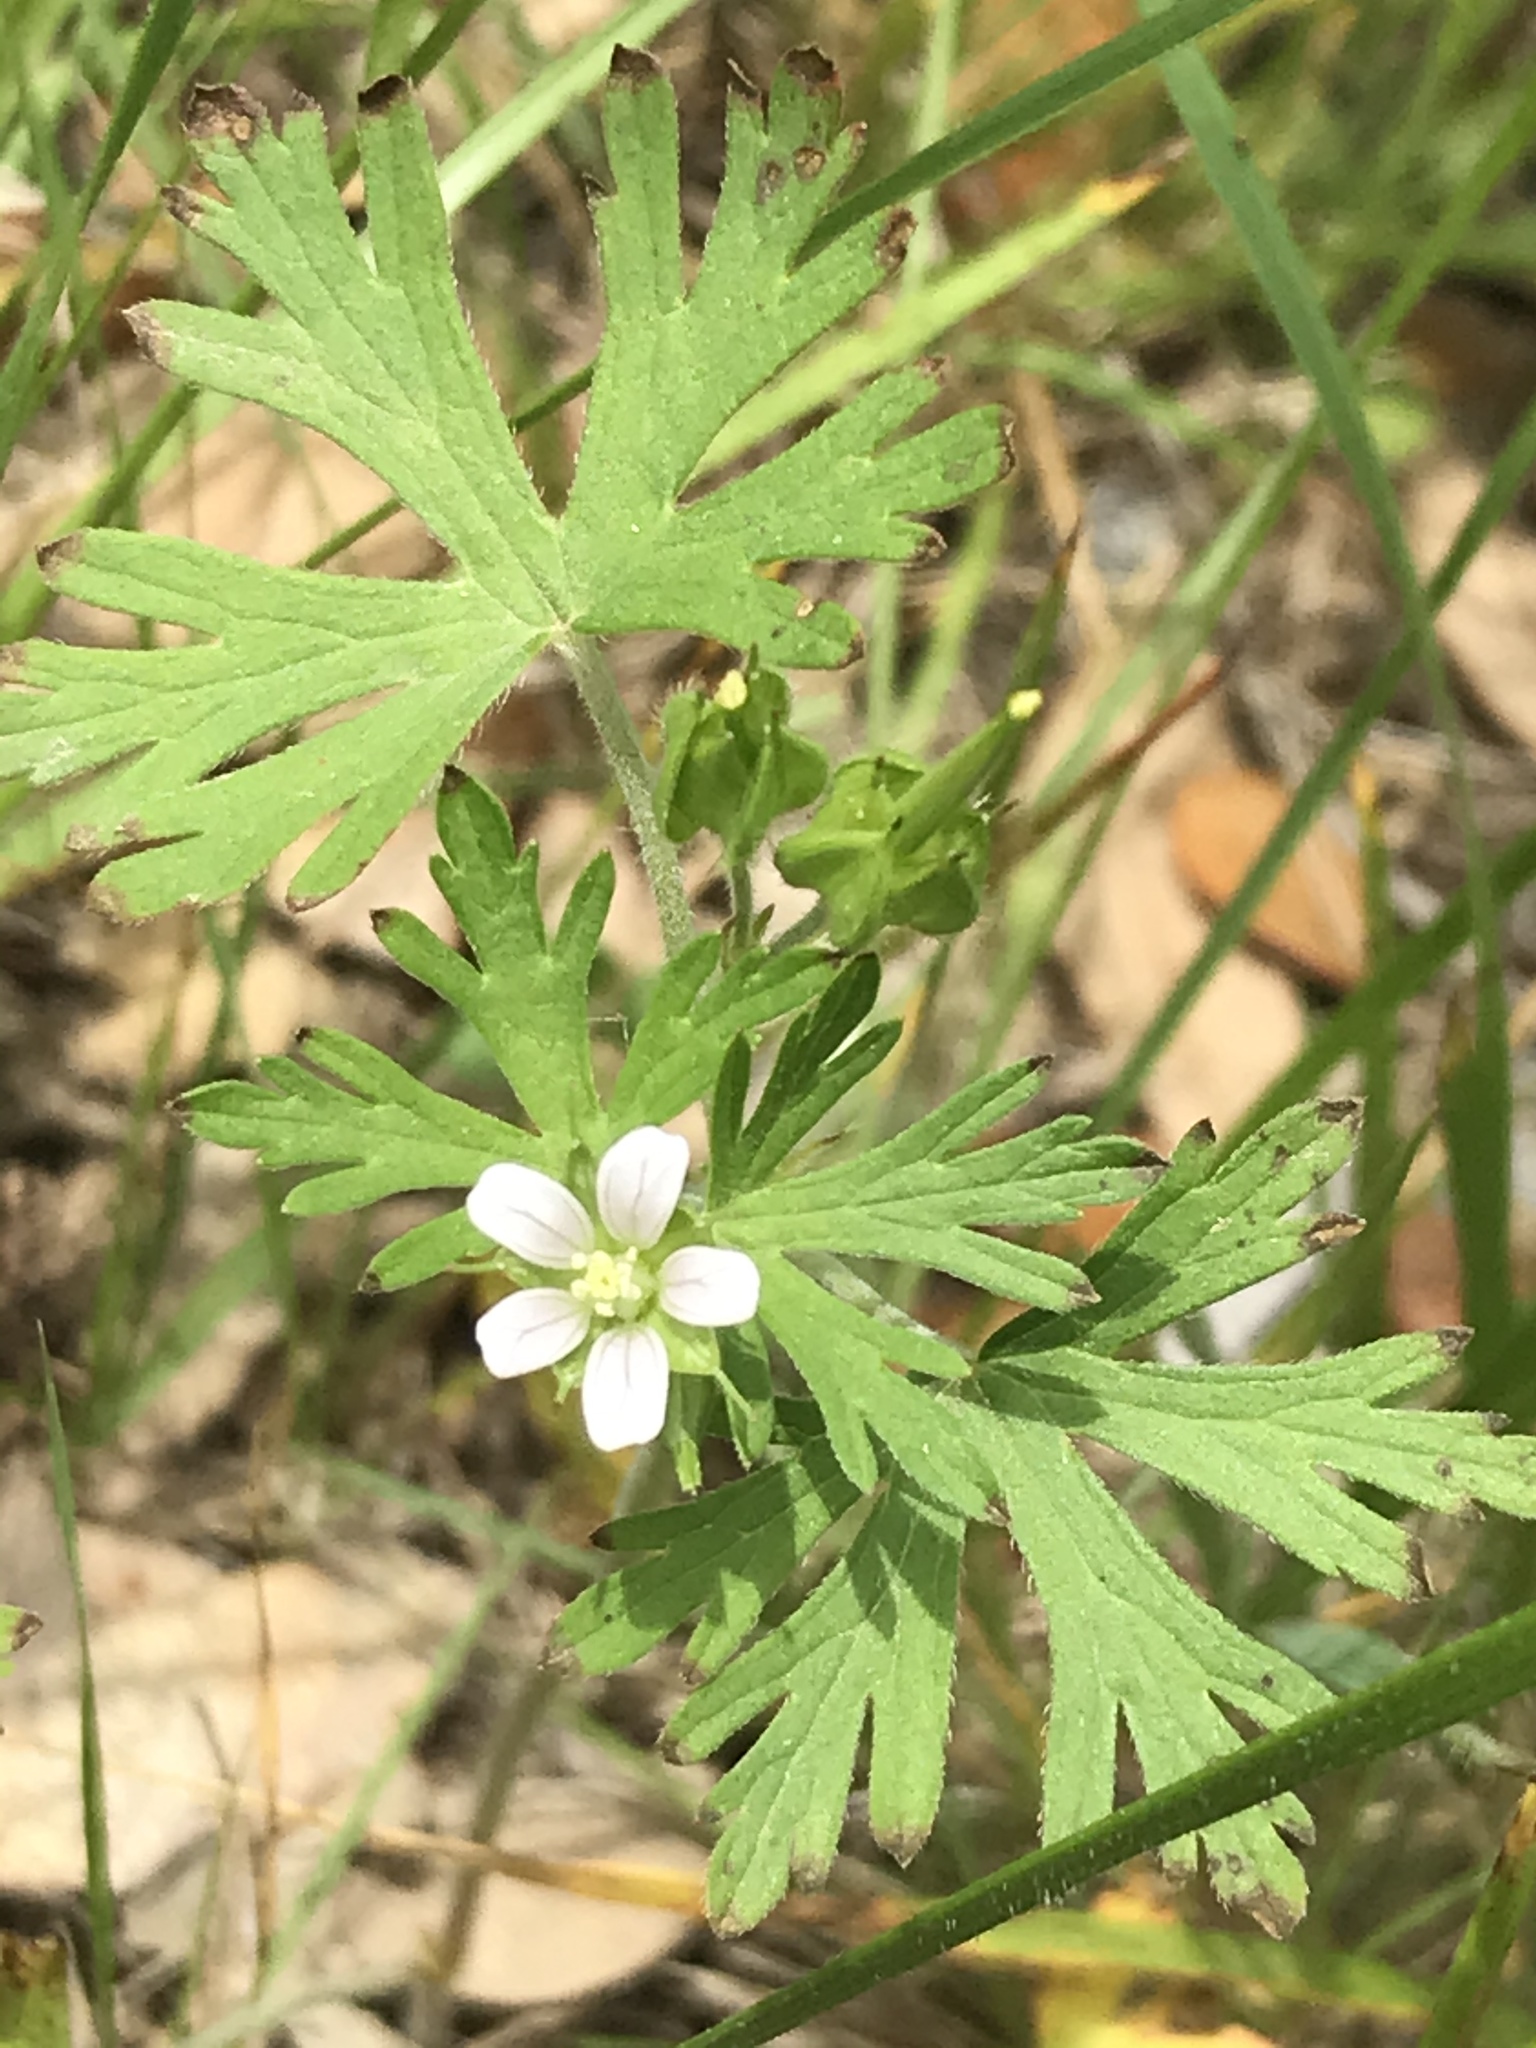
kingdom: Plantae
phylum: Tracheophyta
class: Magnoliopsida
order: Geraniales
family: Geraniaceae
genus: Geranium
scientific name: Geranium carolinianum
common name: Carolina crane's-bill
